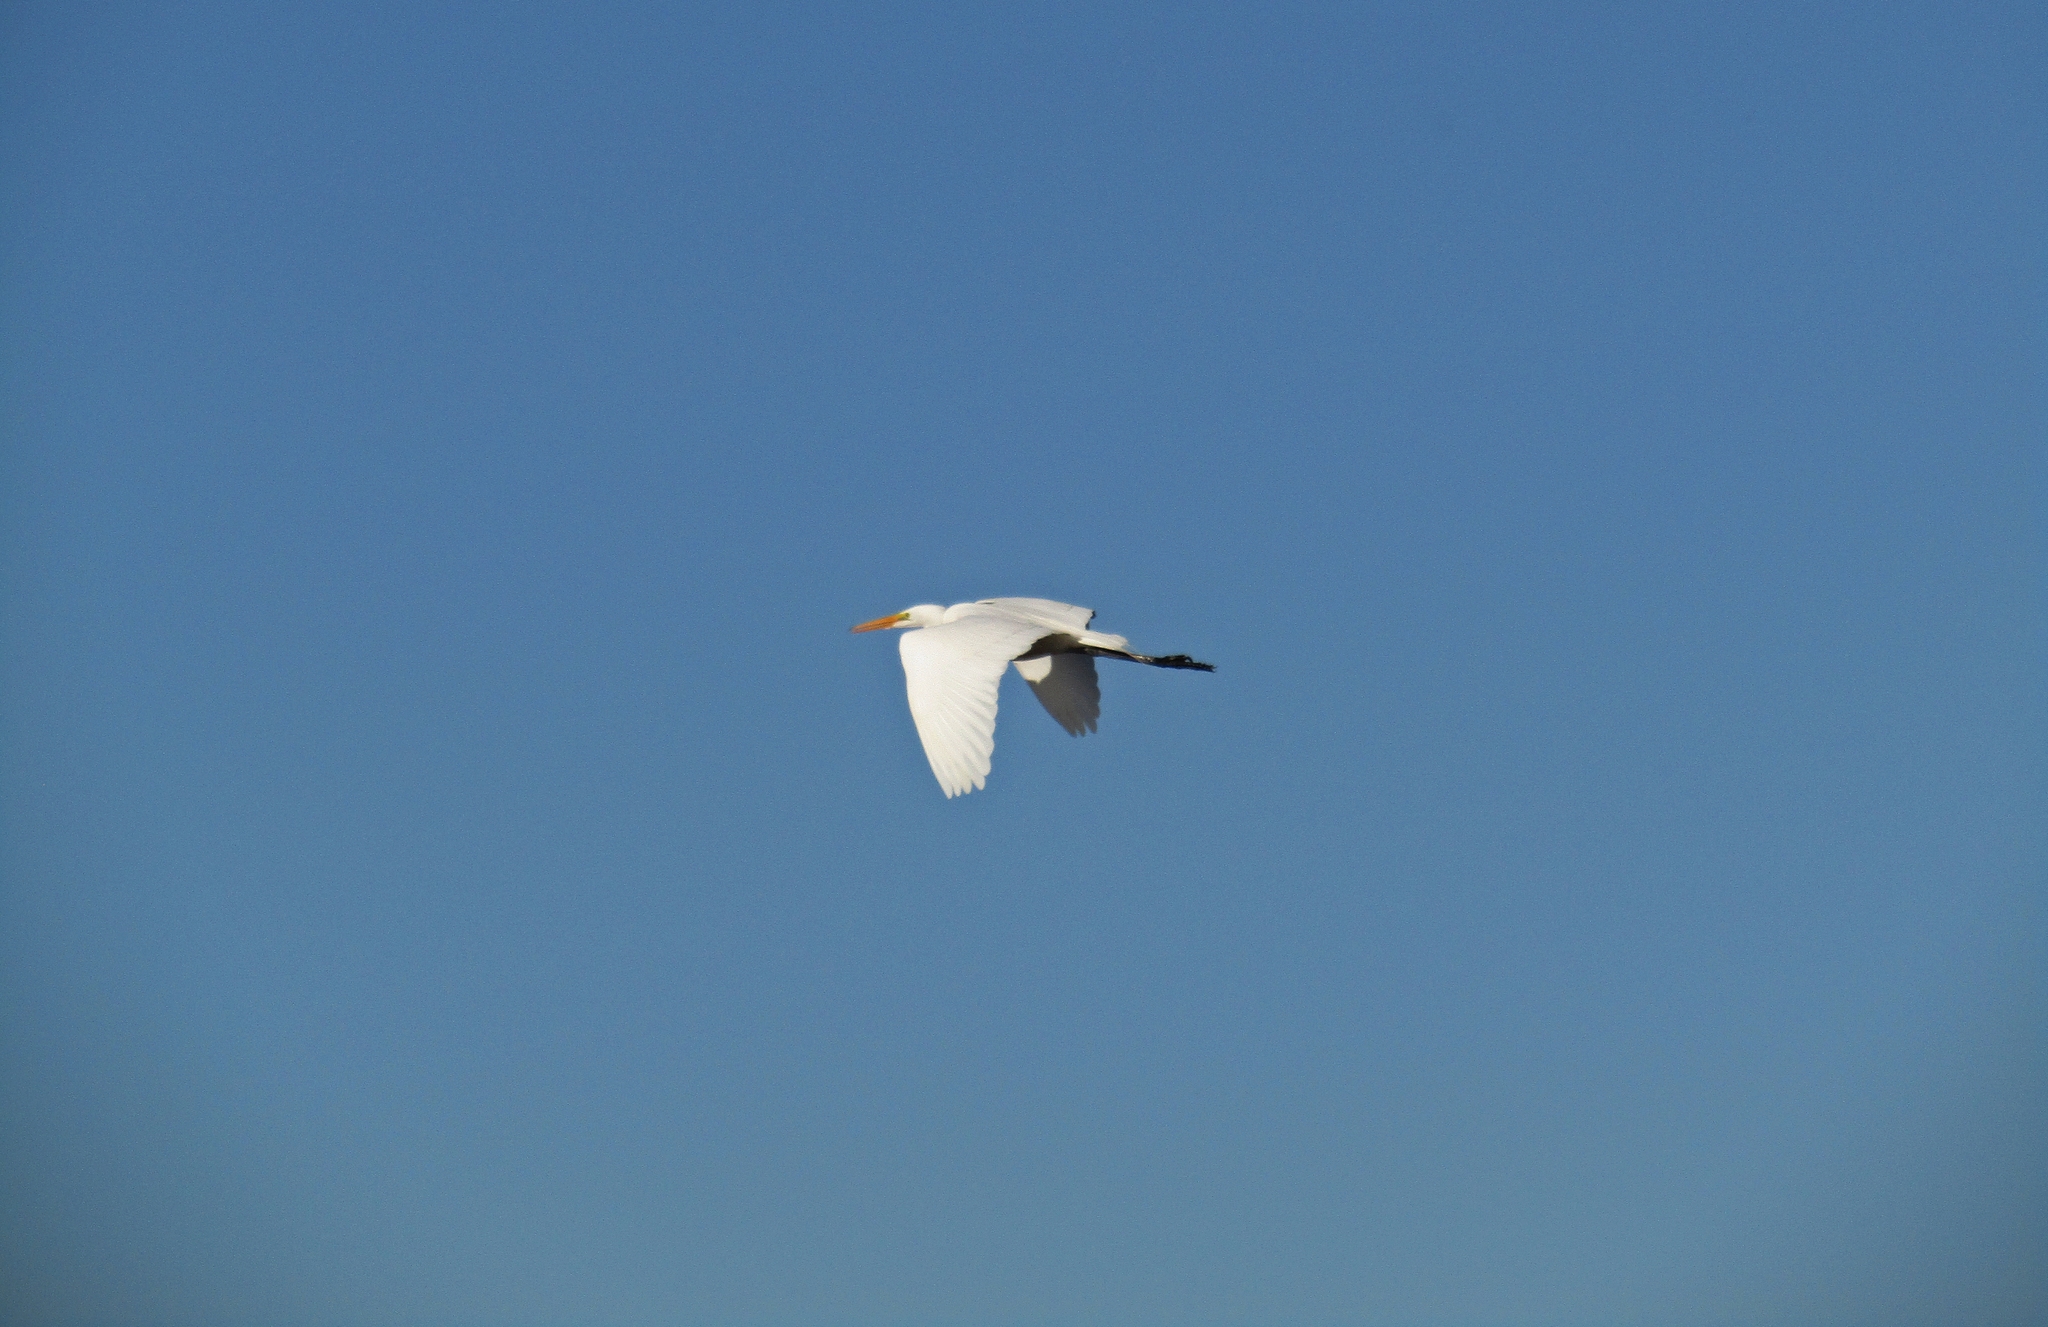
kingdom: Animalia
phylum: Chordata
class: Aves
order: Pelecaniformes
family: Ardeidae
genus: Ardea
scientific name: Ardea alba
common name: Great egret
